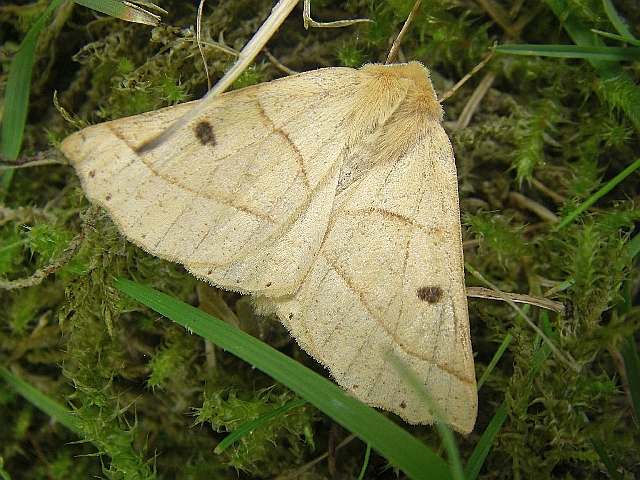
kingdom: Animalia
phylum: Arthropoda
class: Insecta
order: Lepidoptera
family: Geometridae
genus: Crocallis
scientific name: Crocallis elinguaria
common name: Scalloped oak
